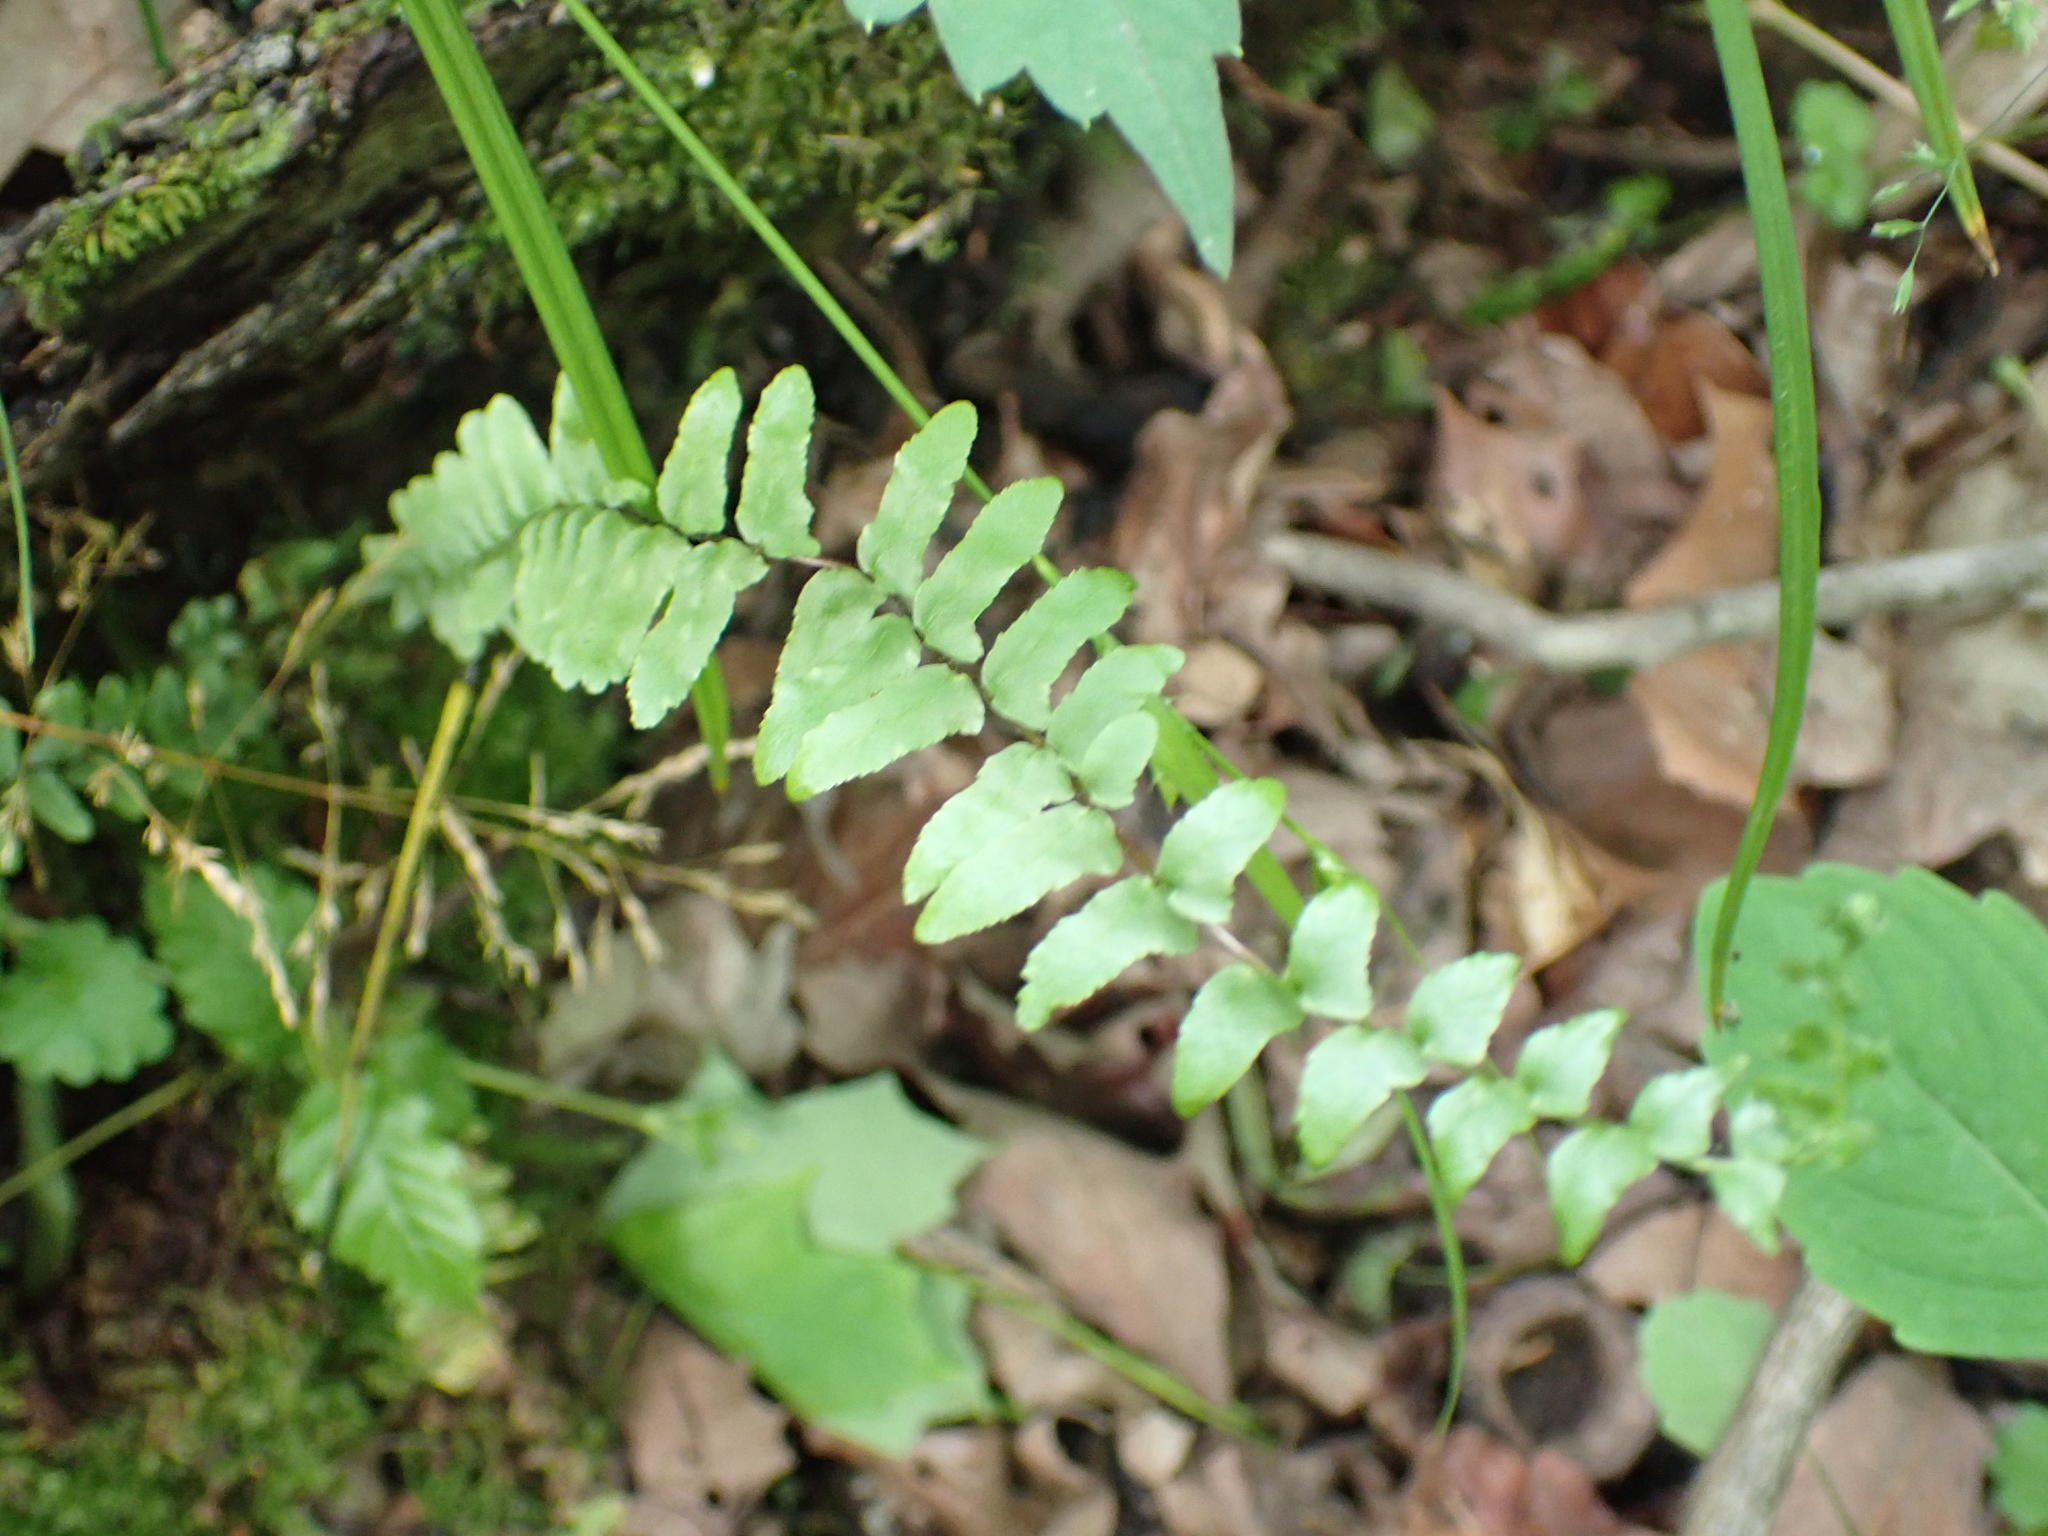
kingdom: Plantae
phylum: Tracheophyta
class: Polypodiopsida
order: Polypodiales
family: Aspleniaceae
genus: Asplenium
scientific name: Asplenium platyneuron
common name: Ebony spleenwort
